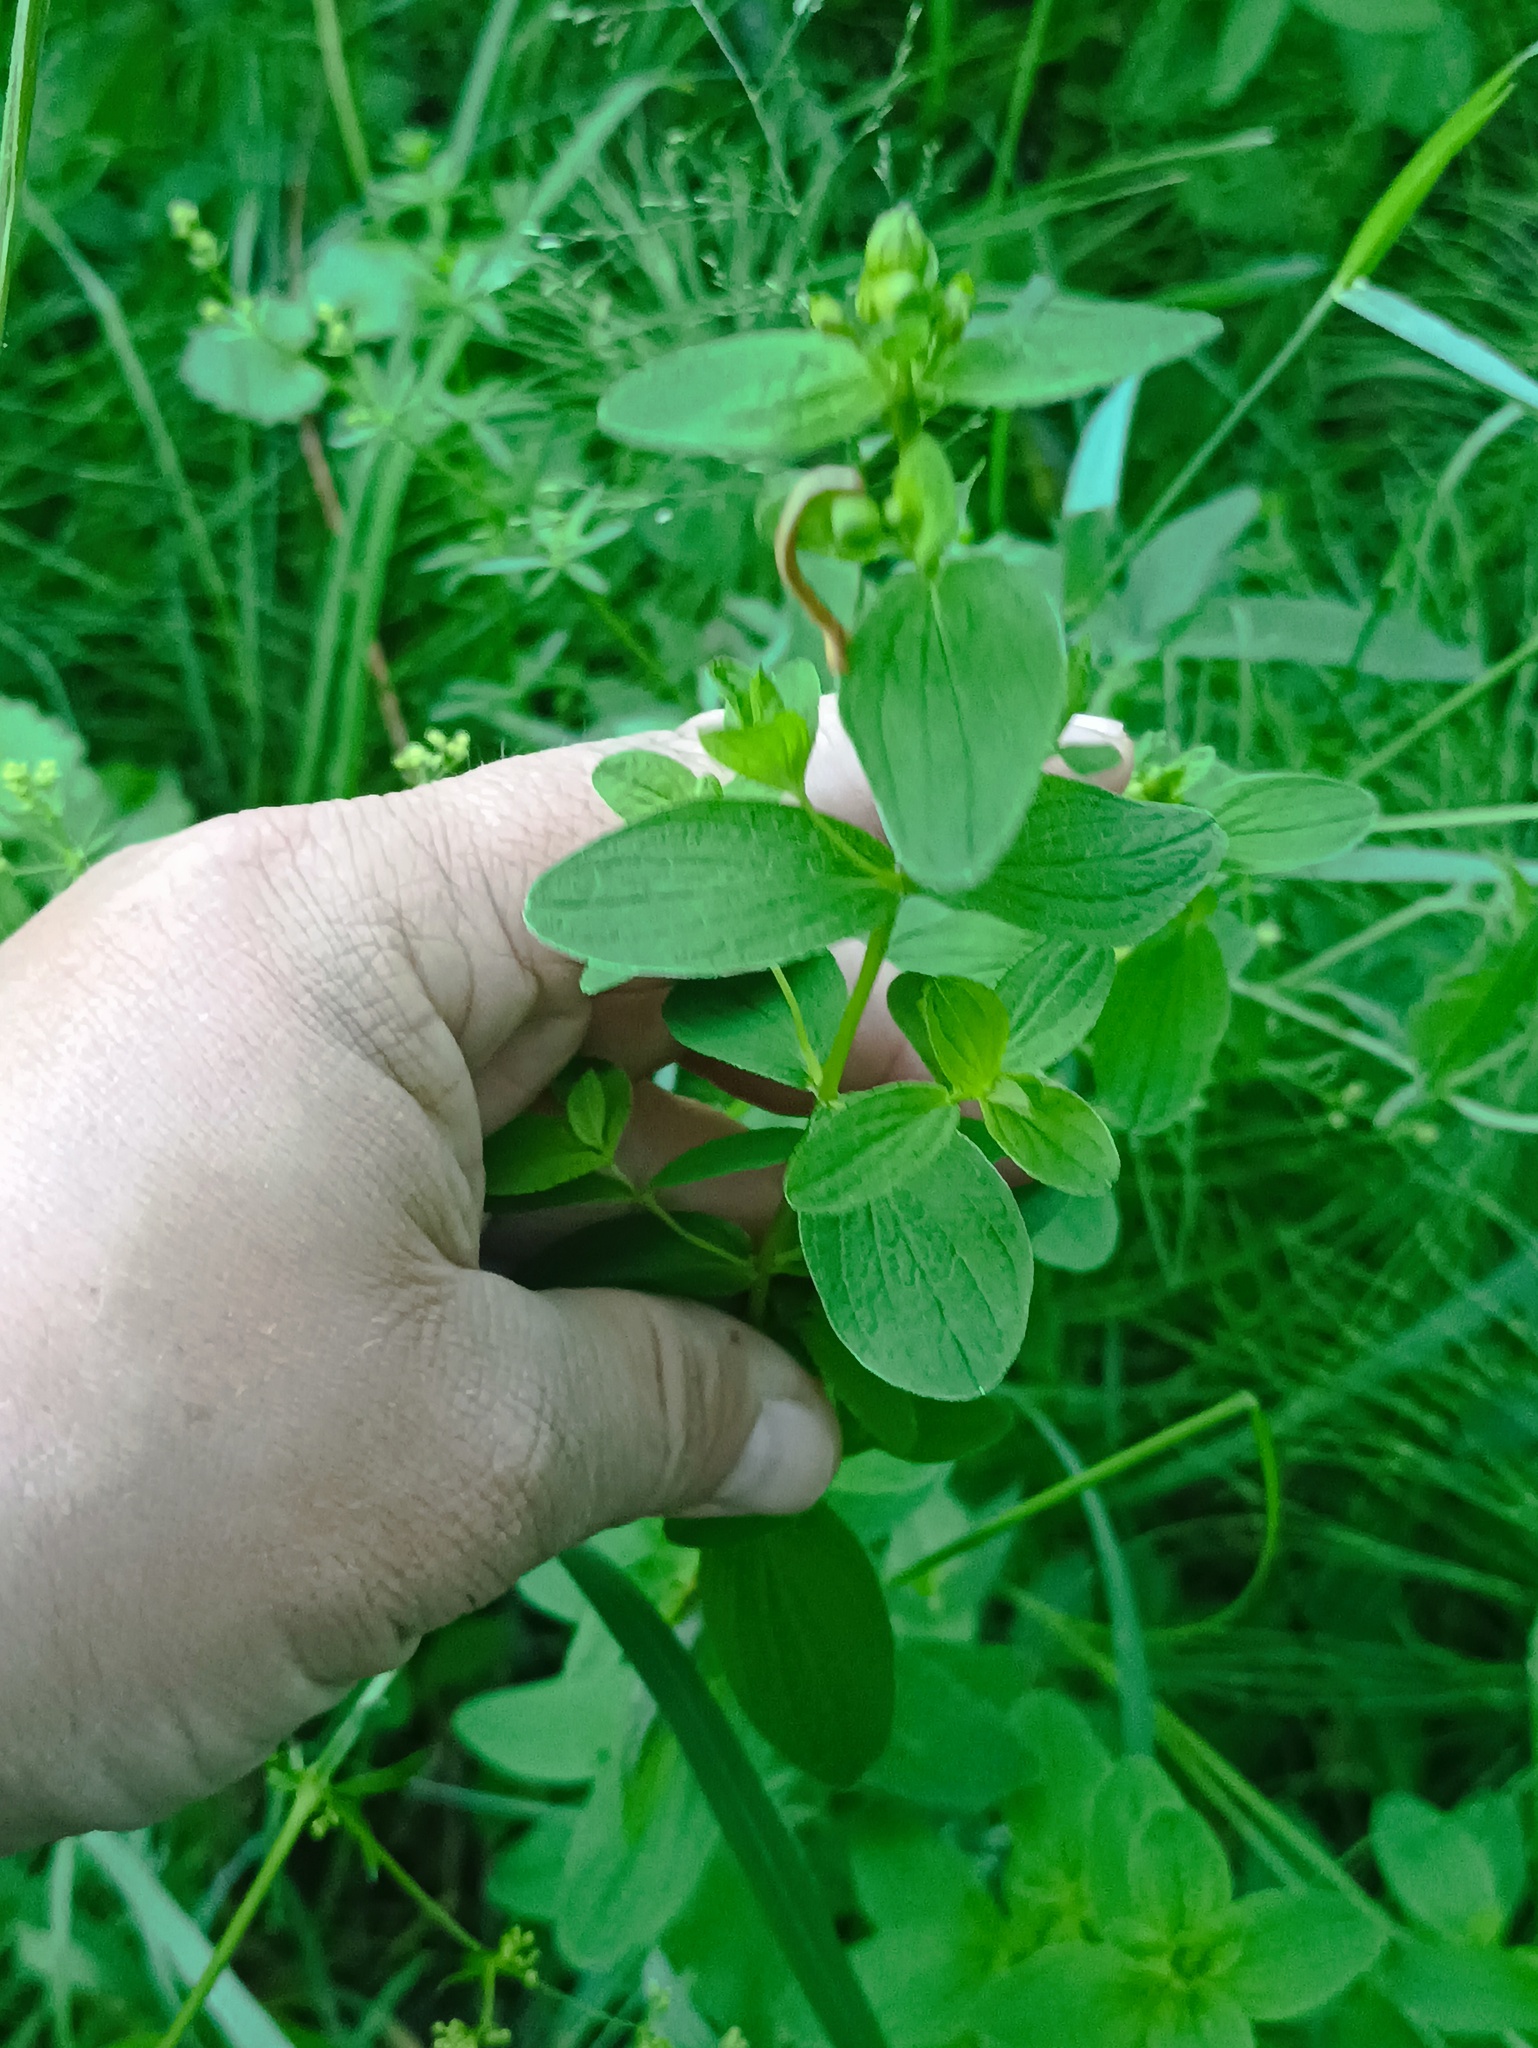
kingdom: Plantae
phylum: Tracheophyta
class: Magnoliopsida
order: Malpighiales
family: Hypericaceae
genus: Hypericum
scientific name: Hypericum maculatum
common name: Imperforate st. john's-wort
